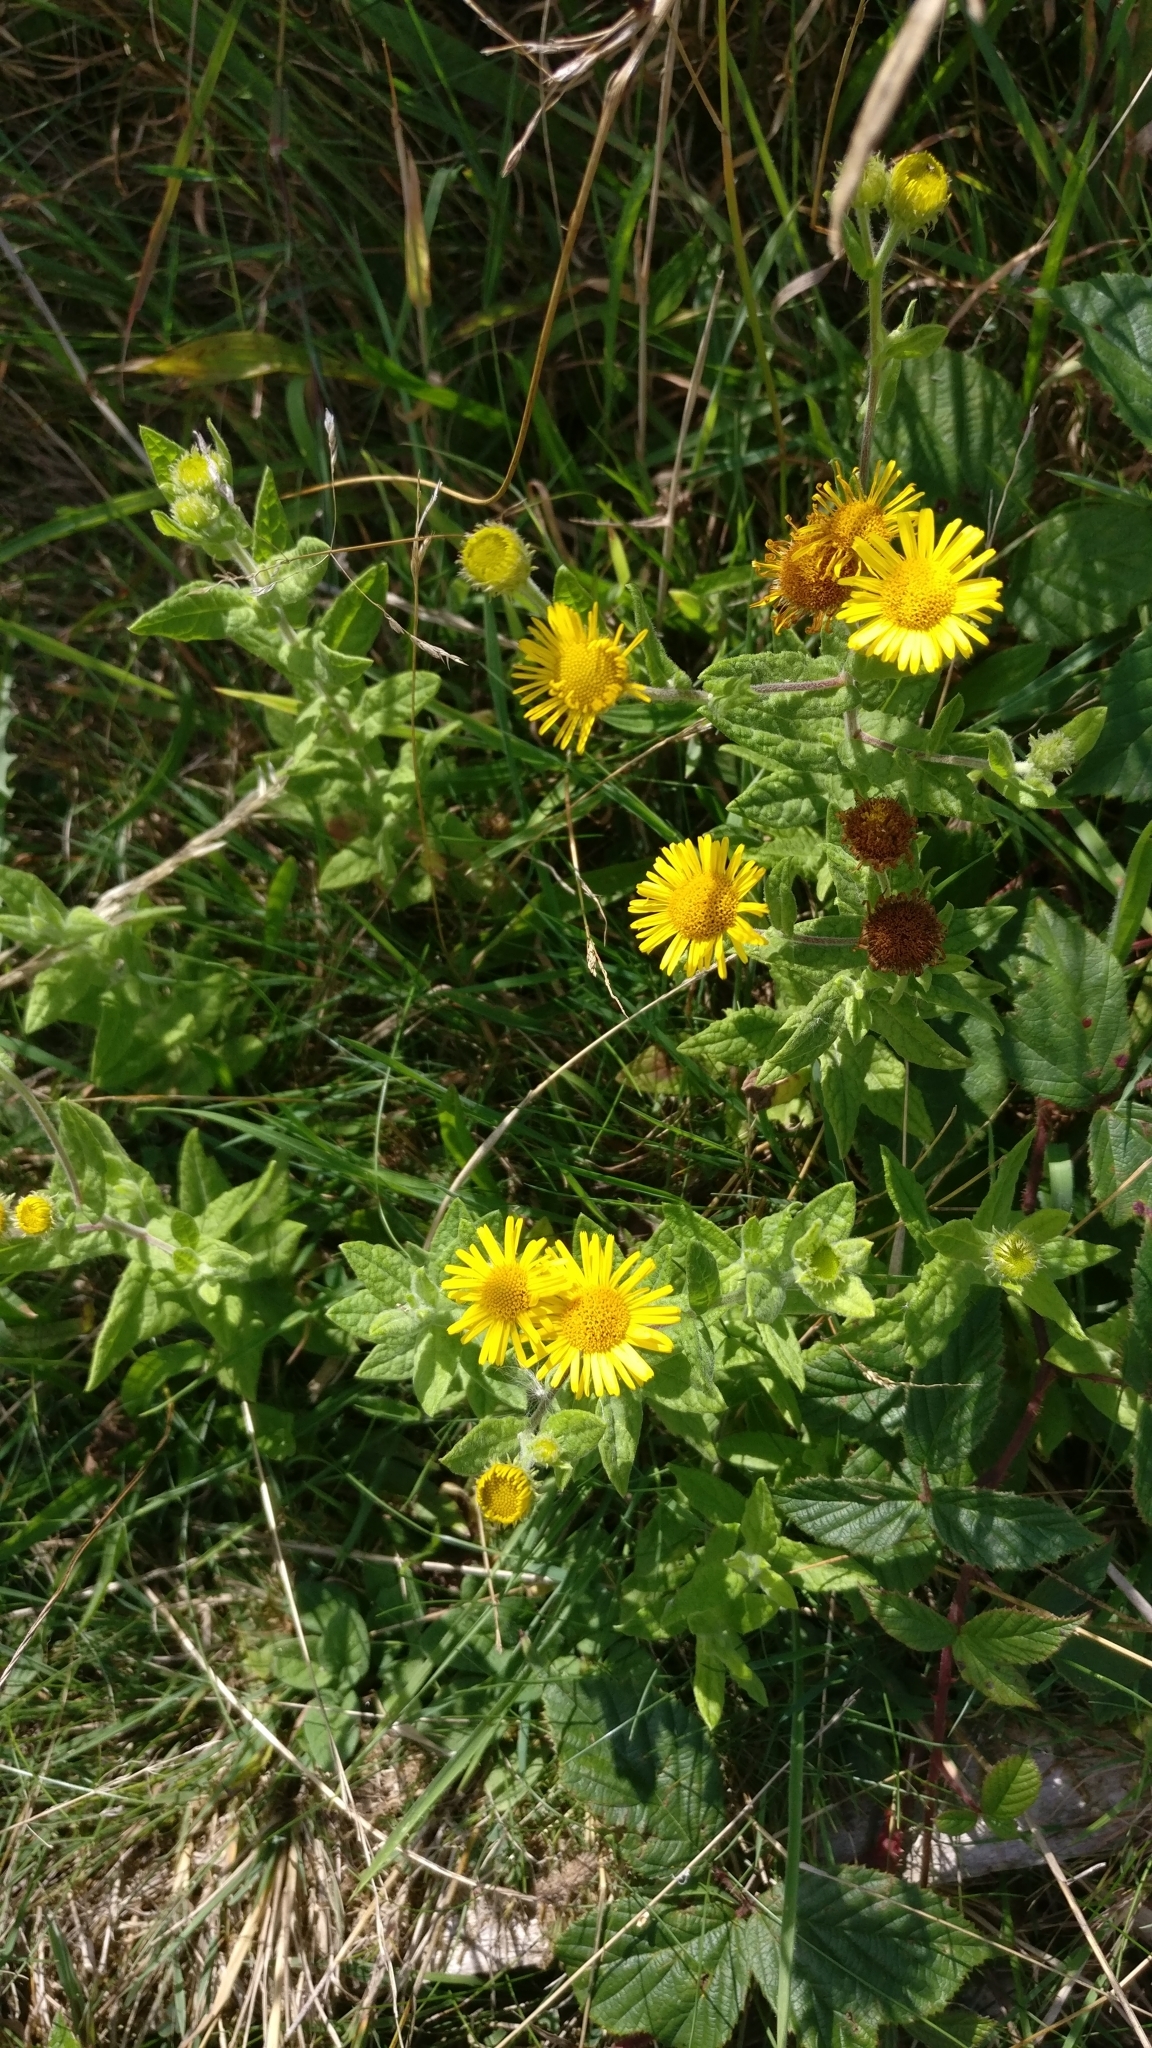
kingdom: Plantae
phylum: Tracheophyta
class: Magnoliopsida
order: Asterales
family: Asteraceae
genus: Pulicaria
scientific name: Pulicaria dysenterica
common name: Common fleabane
